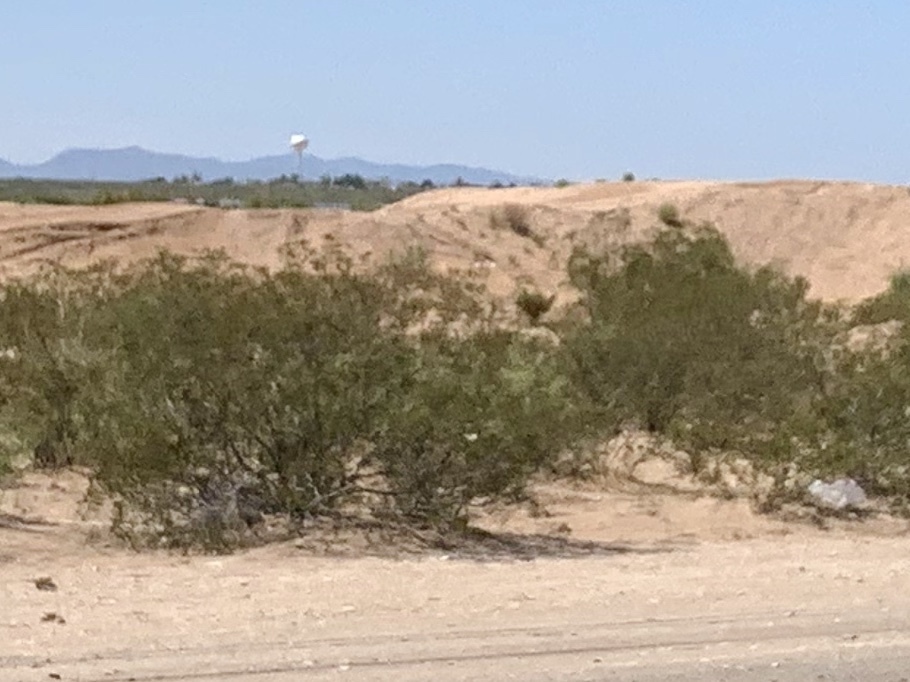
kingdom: Plantae
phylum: Tracheophyta
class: Magnoliopsida
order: Zygophyllales
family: Zygophyllaceae
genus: Larrea
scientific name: Larrea tridentata
